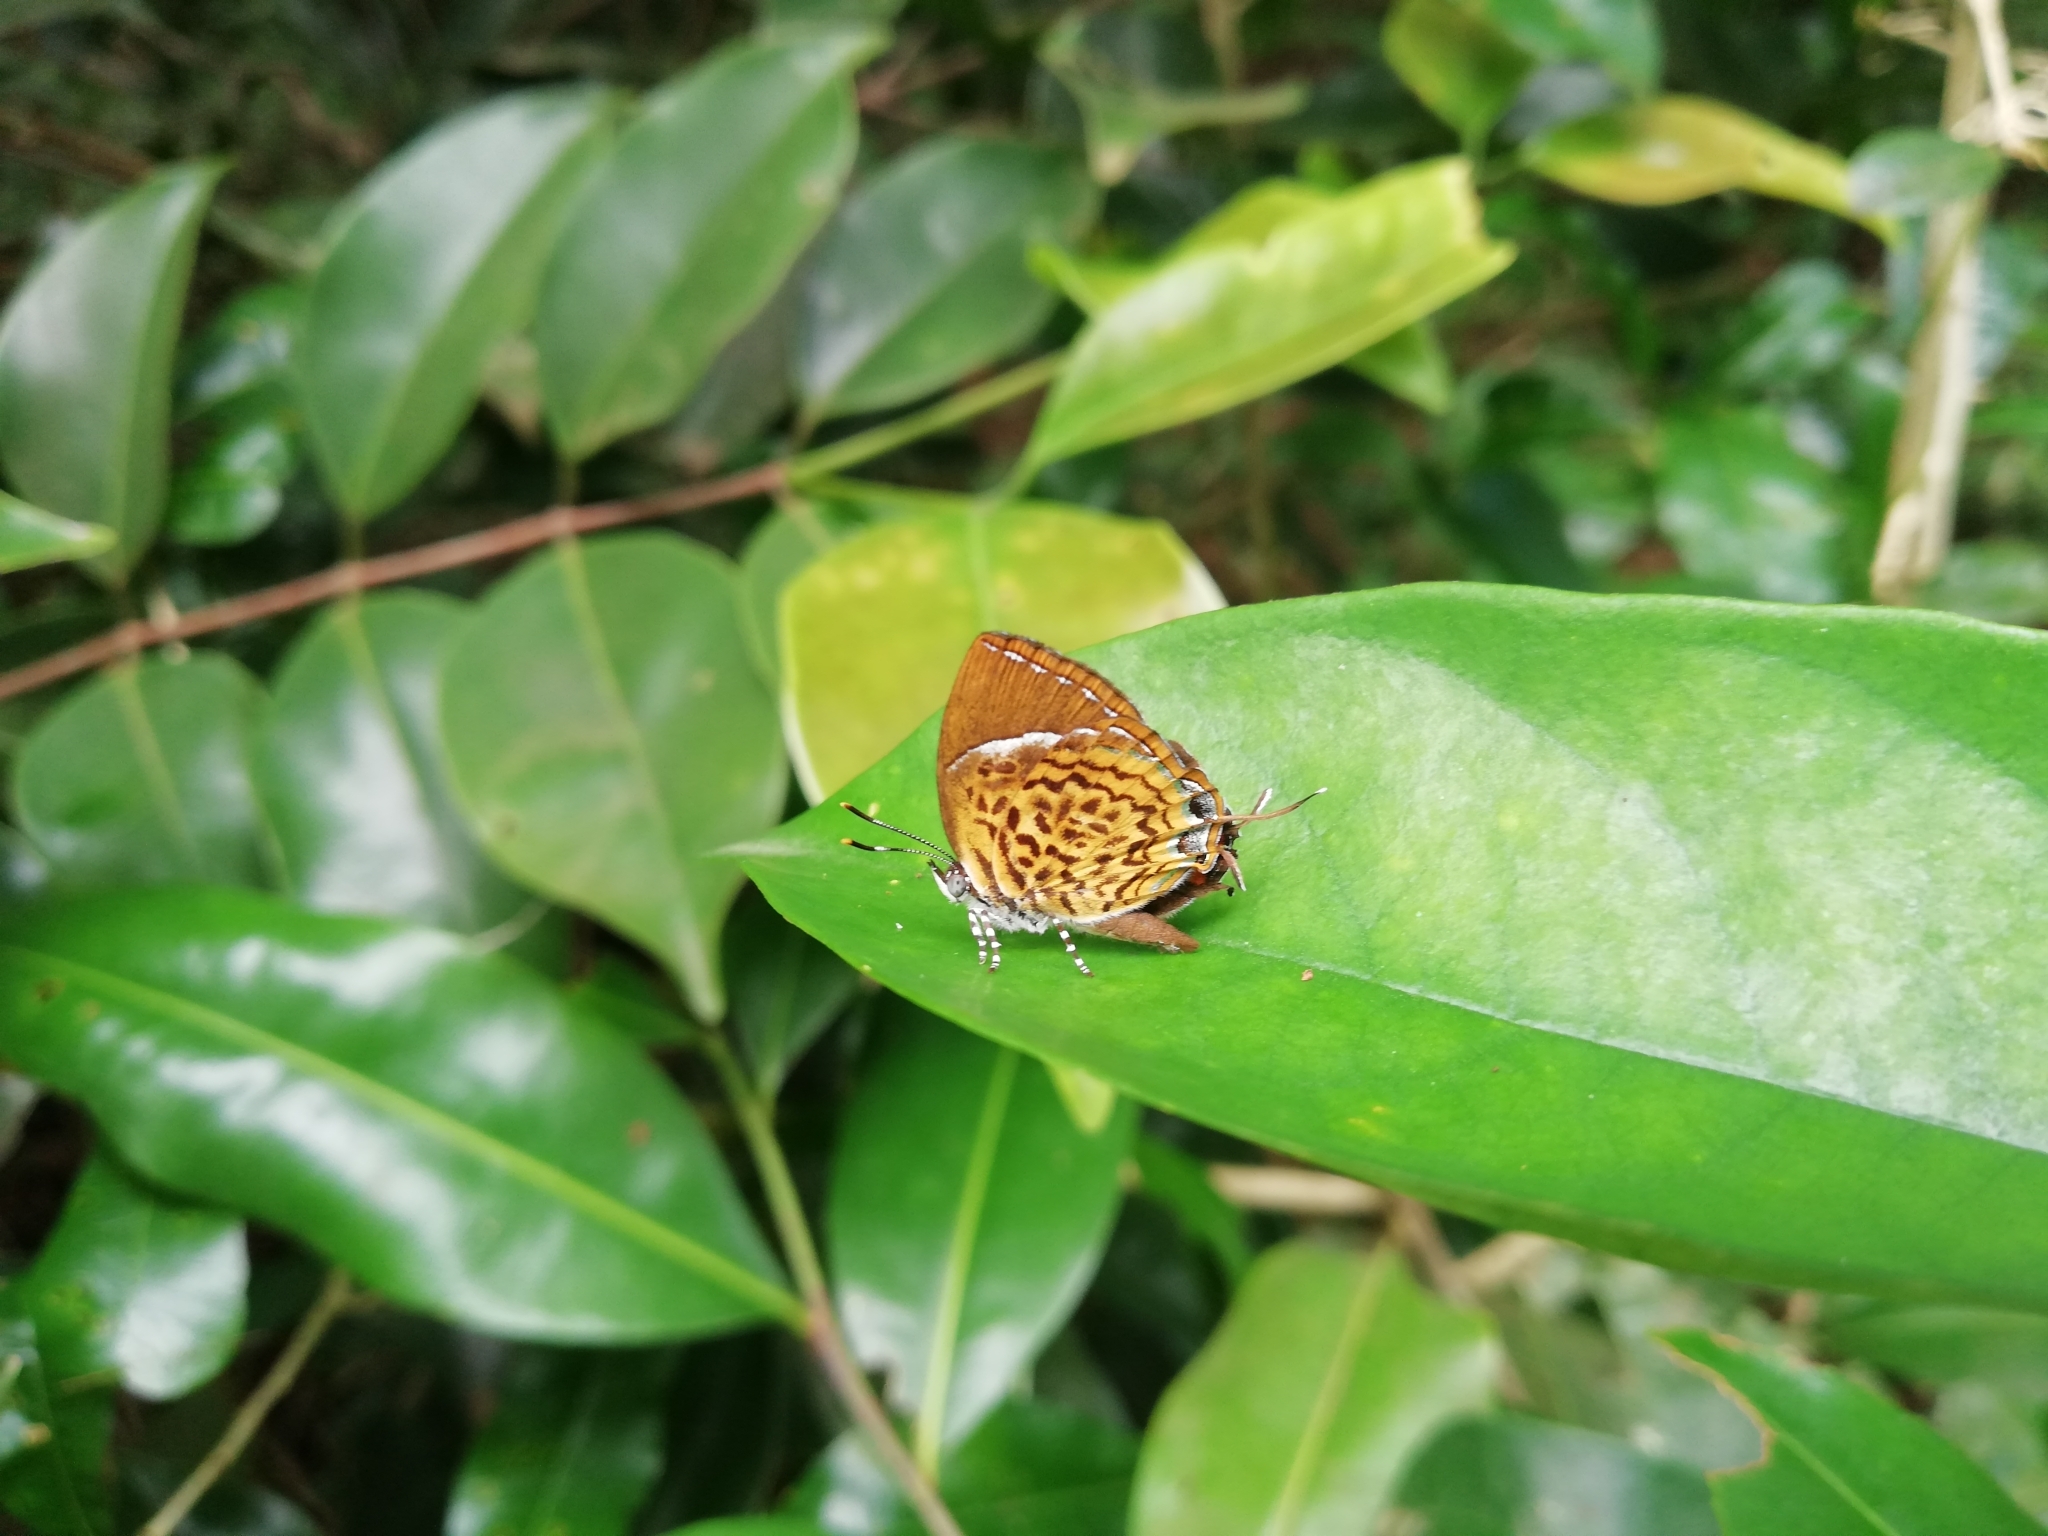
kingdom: Animalia
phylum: Arthropoda
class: Insecta
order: Lepidoptera
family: Lycaenidae
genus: Rathinda
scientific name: Rathinda amor
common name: Monkey puzzle
